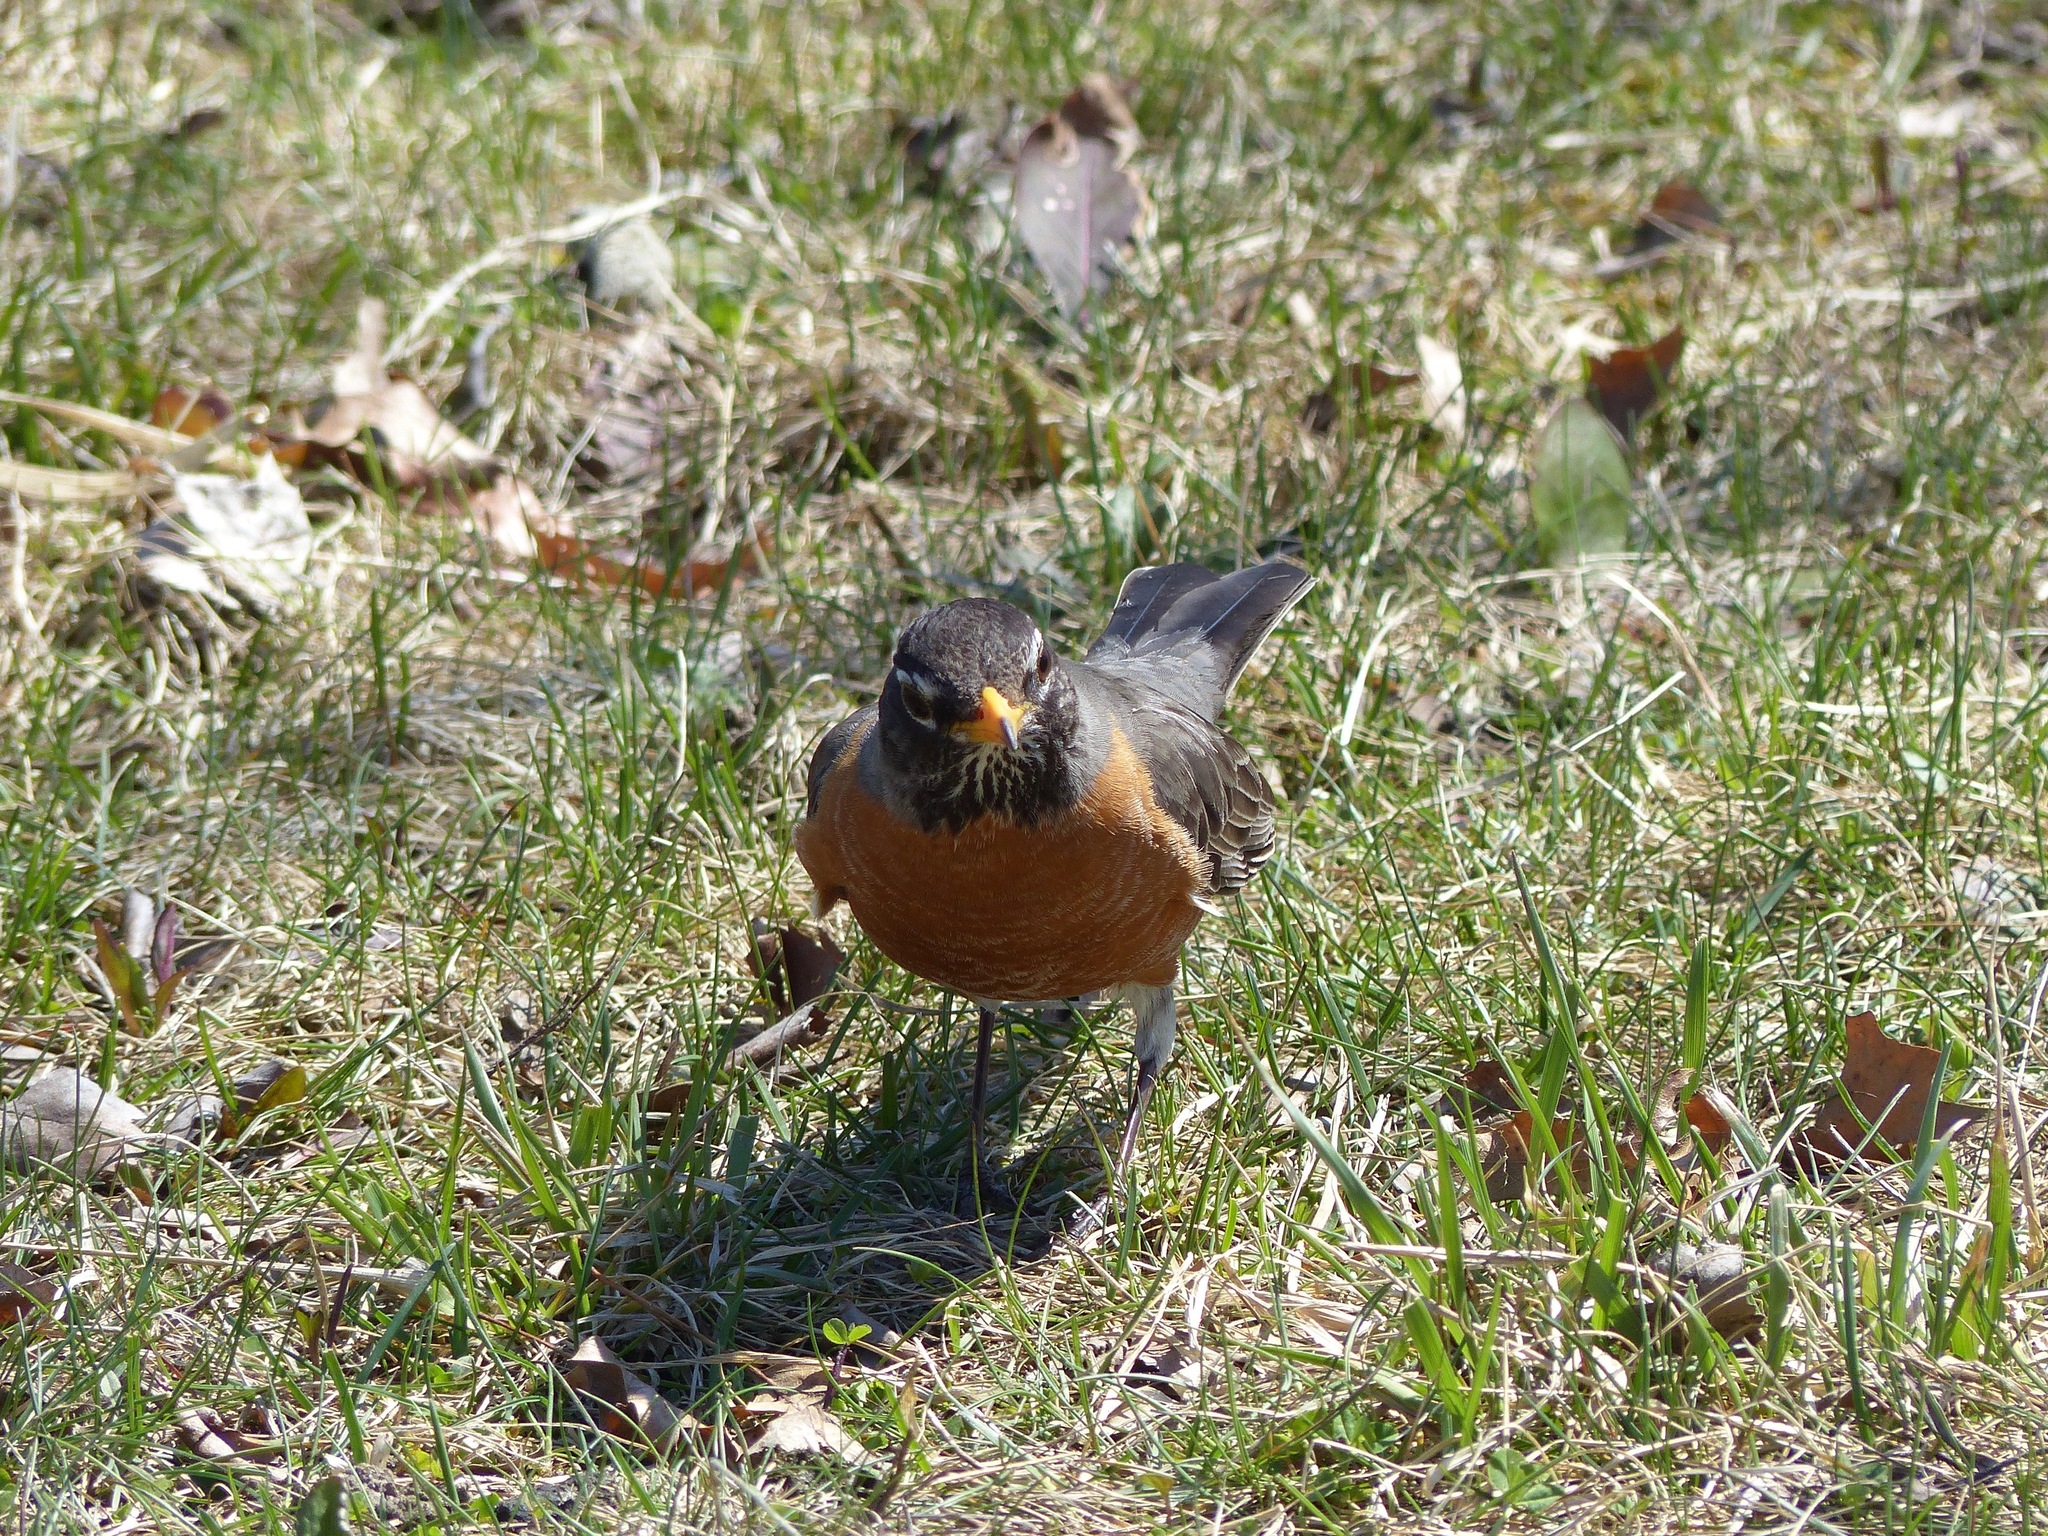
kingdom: Animalia
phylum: Chordata
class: Aves
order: Passeriformes
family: Turdidae
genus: Turdus
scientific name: Turdus migratorius
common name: American robin
